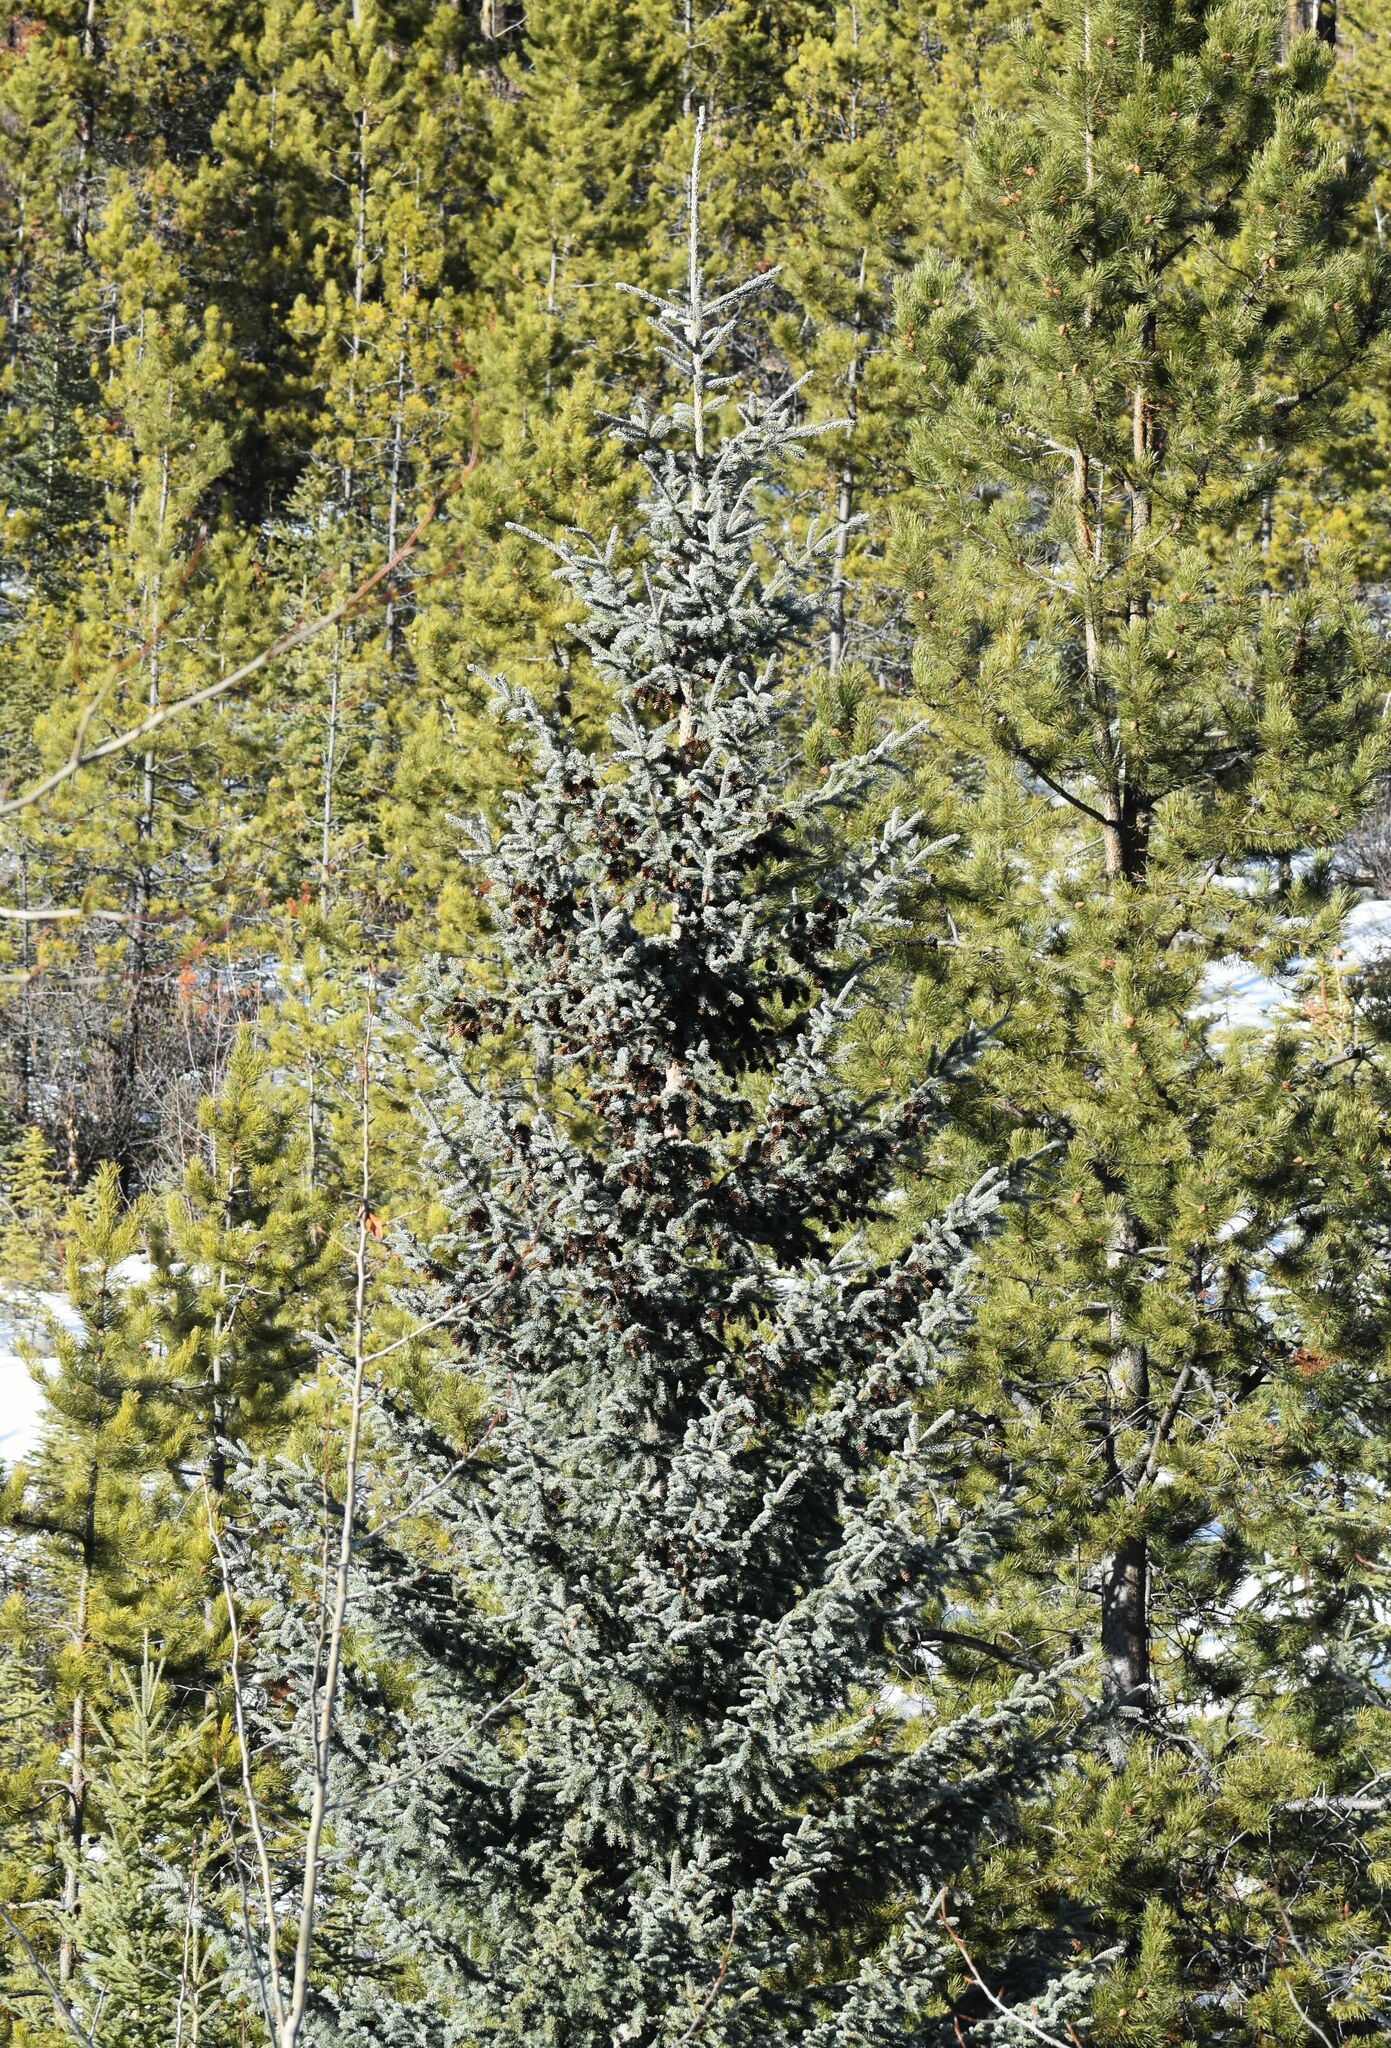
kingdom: Plantae
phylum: Tracheophyta
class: Pinopsida
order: Pinales
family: Pinaceae
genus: Picea
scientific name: Picea glauca
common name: White spruce
